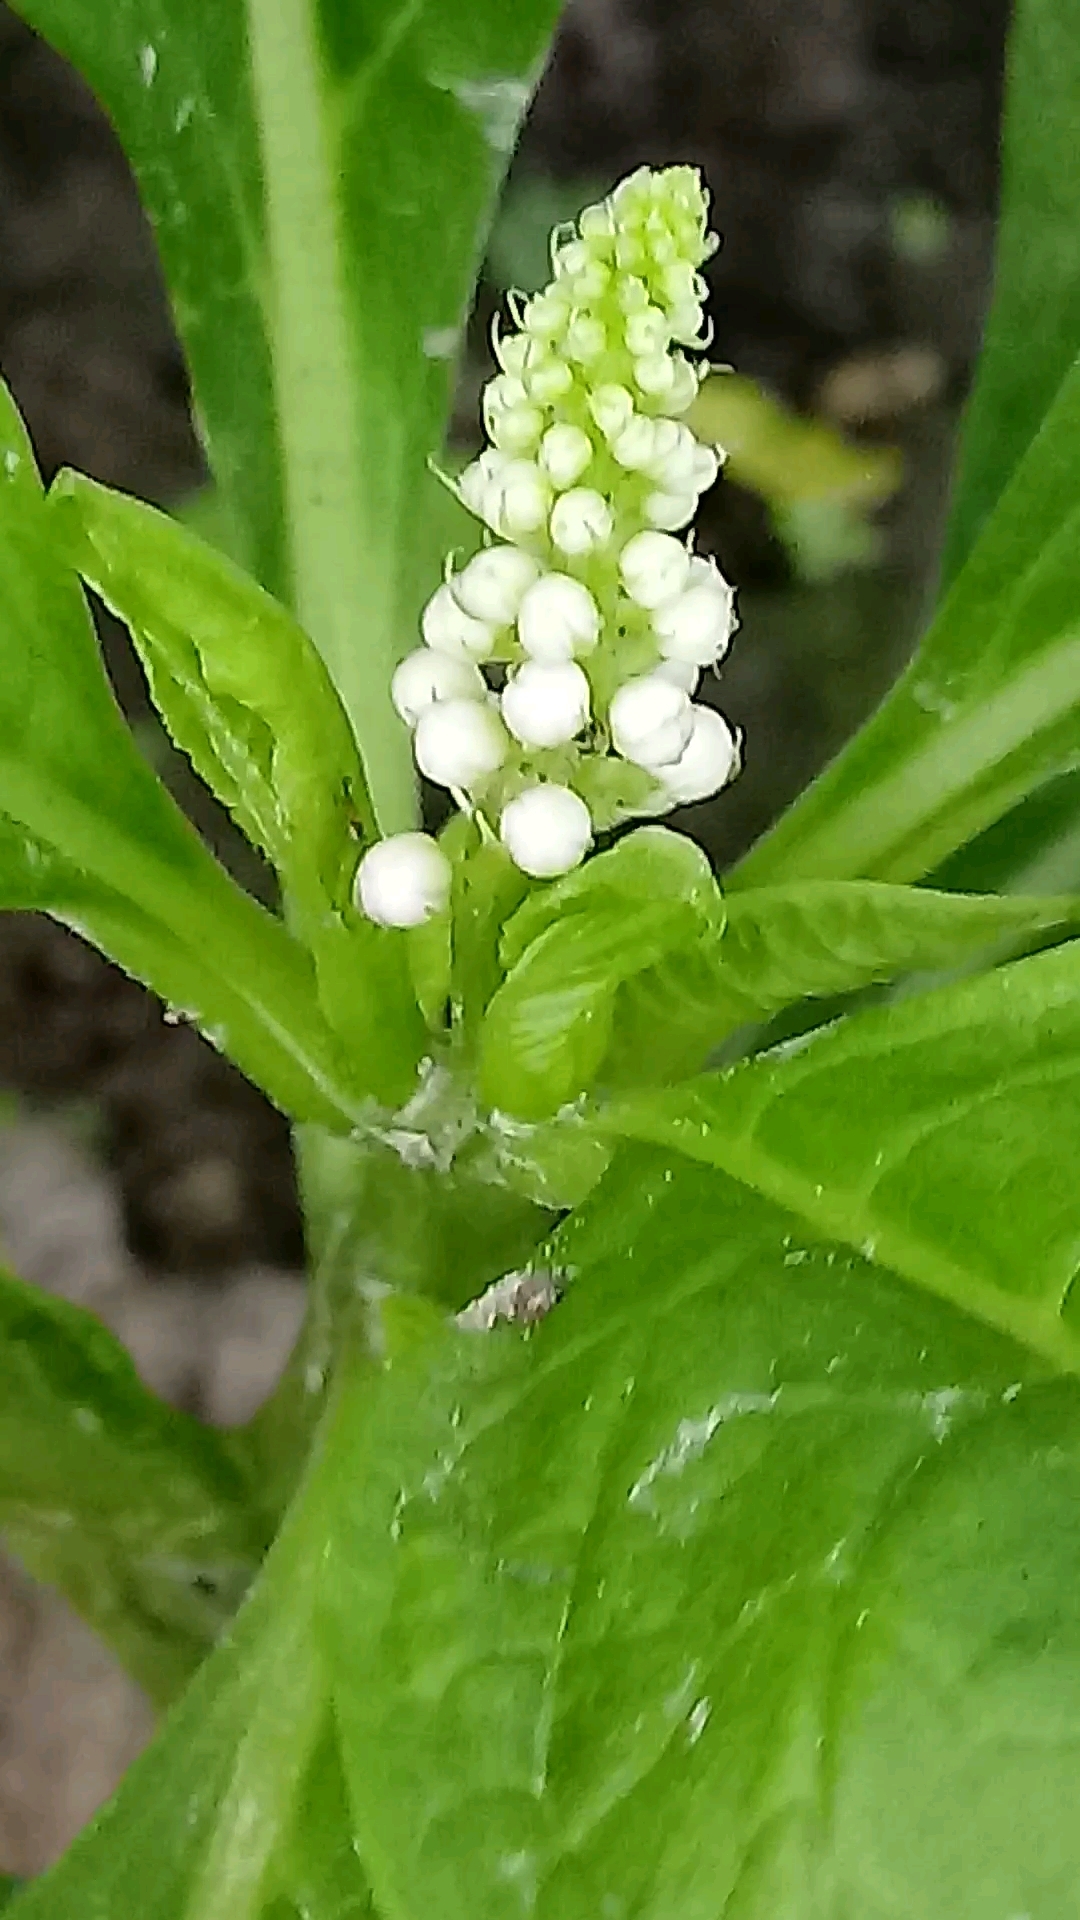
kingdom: Plantae
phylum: Tracheophyta
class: Magnoliopsida
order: Caryophyllales
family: Phytolaccaceae
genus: Phytolacca
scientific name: Phytolacca acinosa
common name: Indian pokeweed
